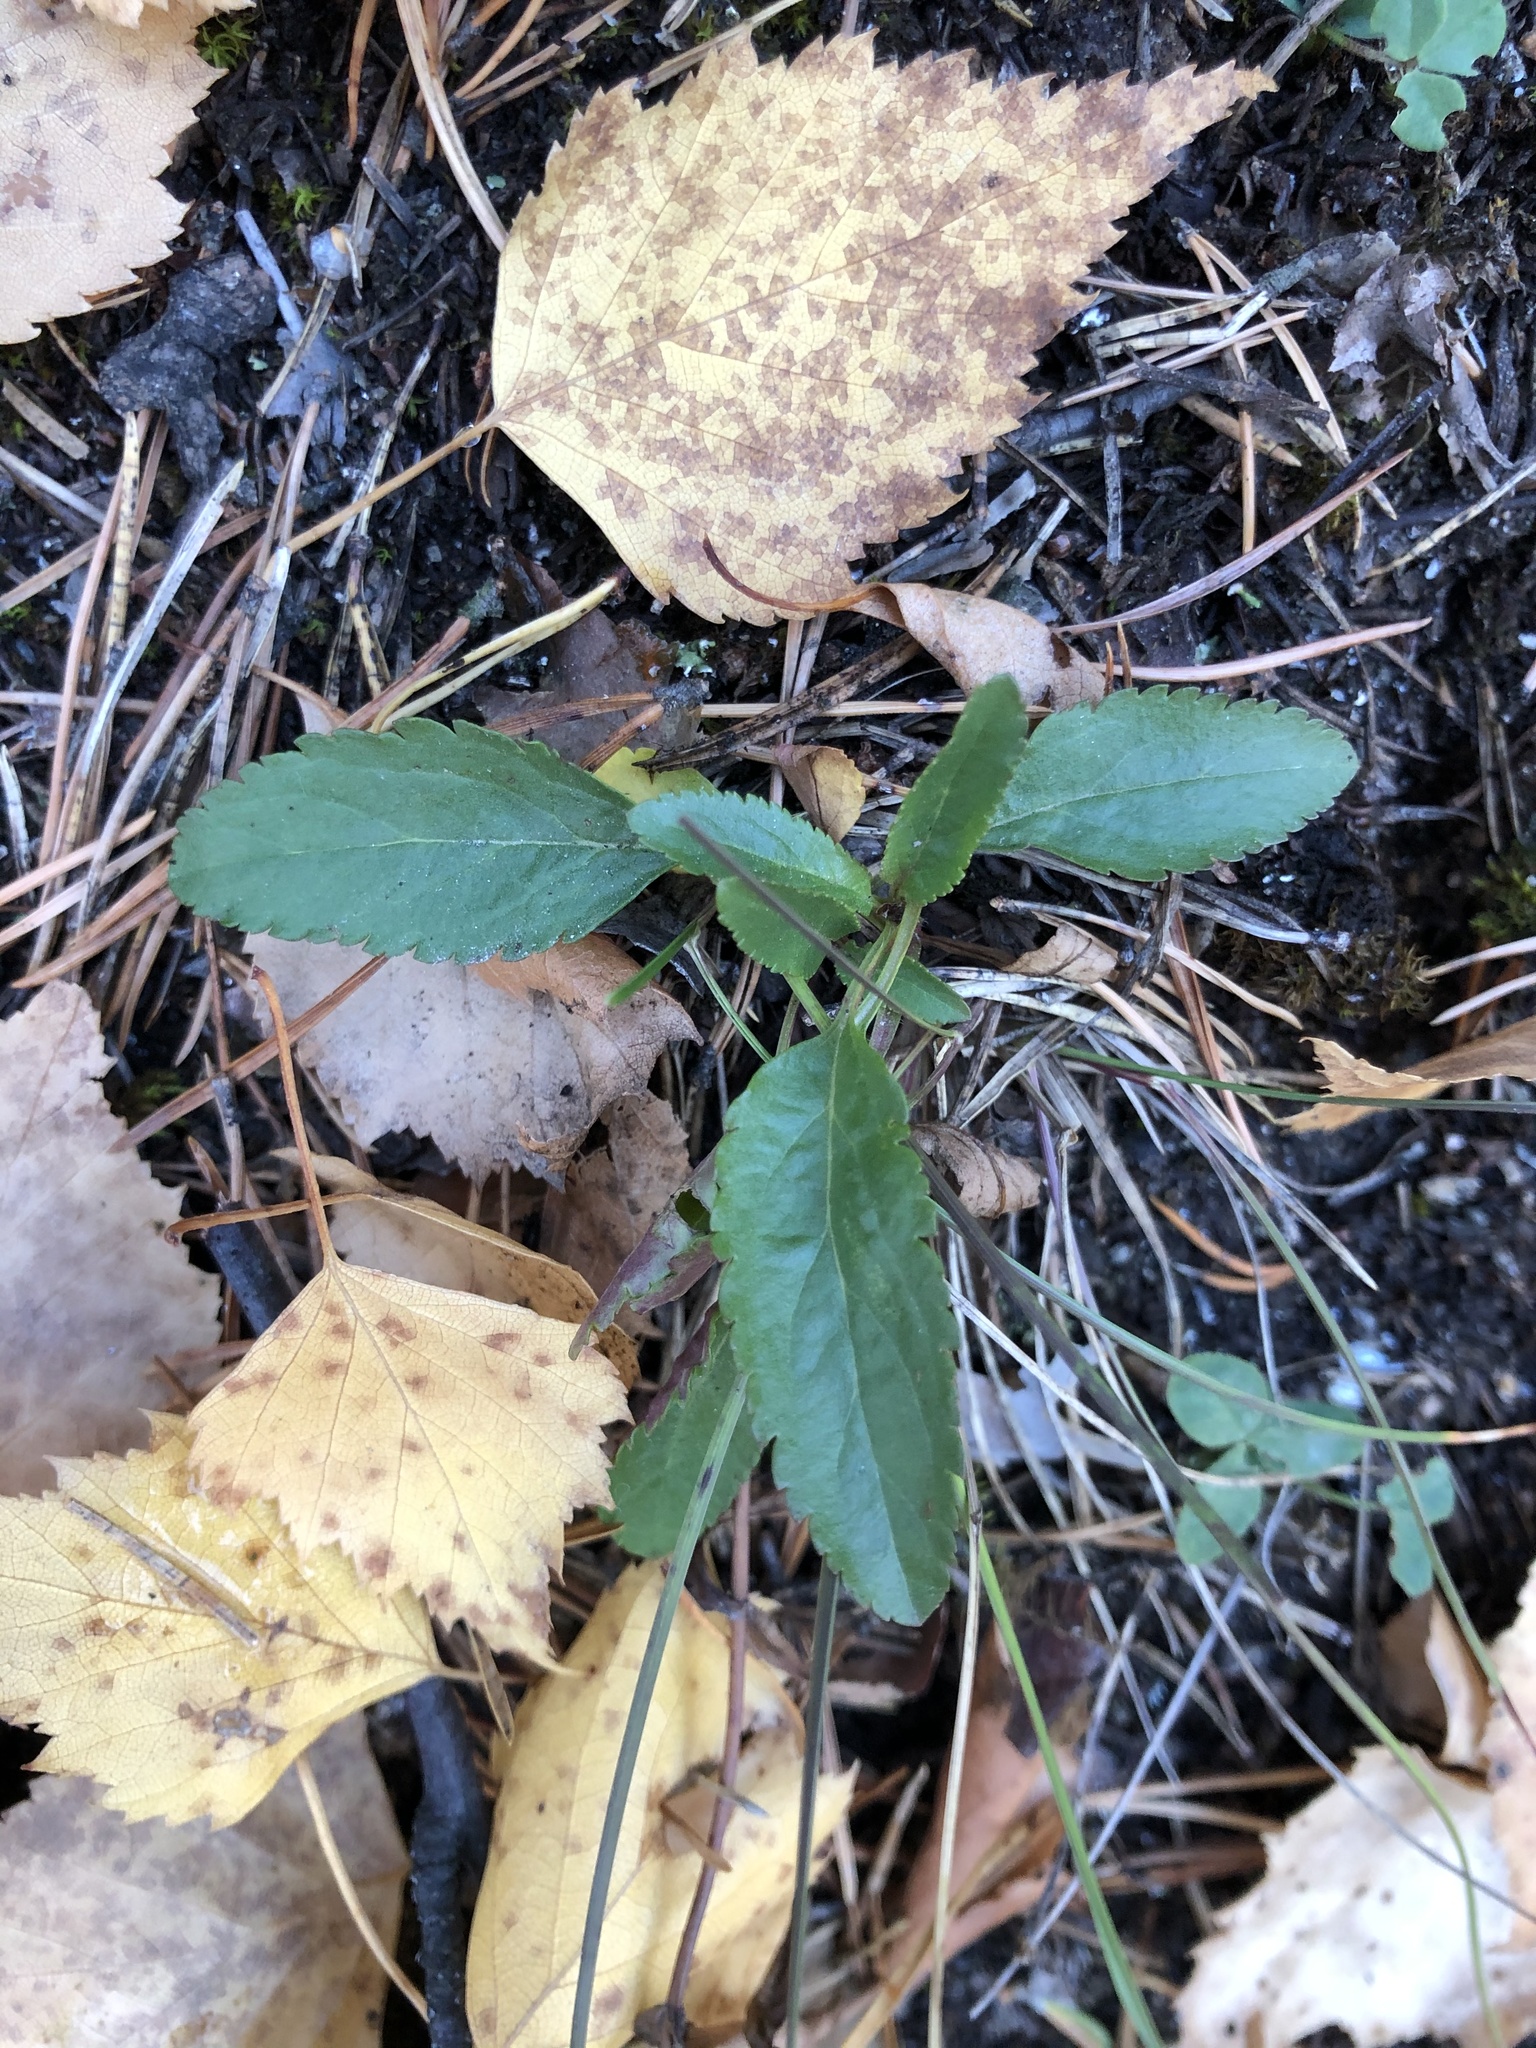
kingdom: Plantae
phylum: Tracheophyta
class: Magnoliopsida
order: Lamiales
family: Plantaginaceae
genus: Veronica
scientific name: Veronica spicata
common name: Spiked speedwell
